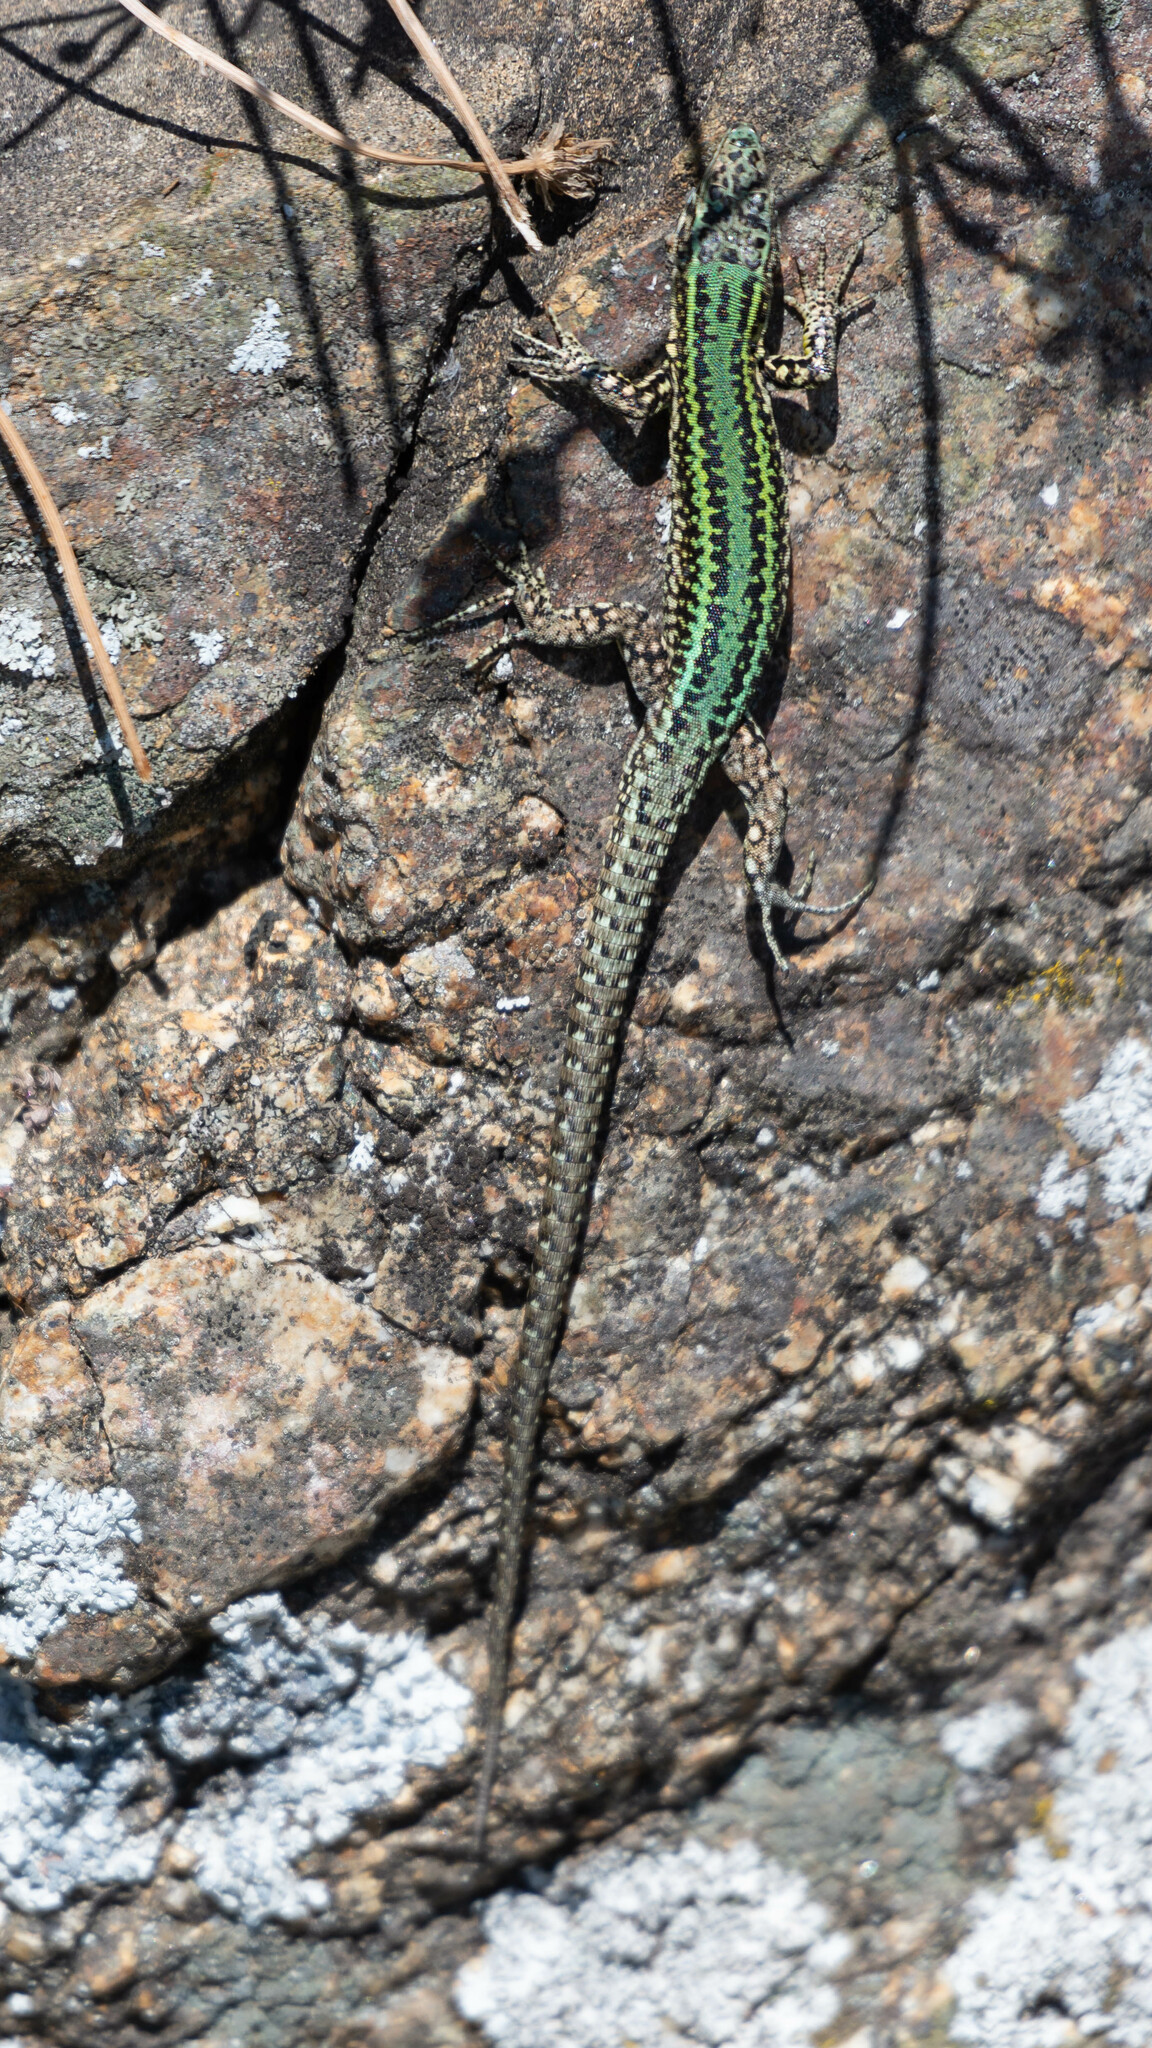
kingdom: Animalia
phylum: Chordata
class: Squamata
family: Lacertidae
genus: Podarcis
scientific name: Podarcis bocagei
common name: Bocage's wall lizard
